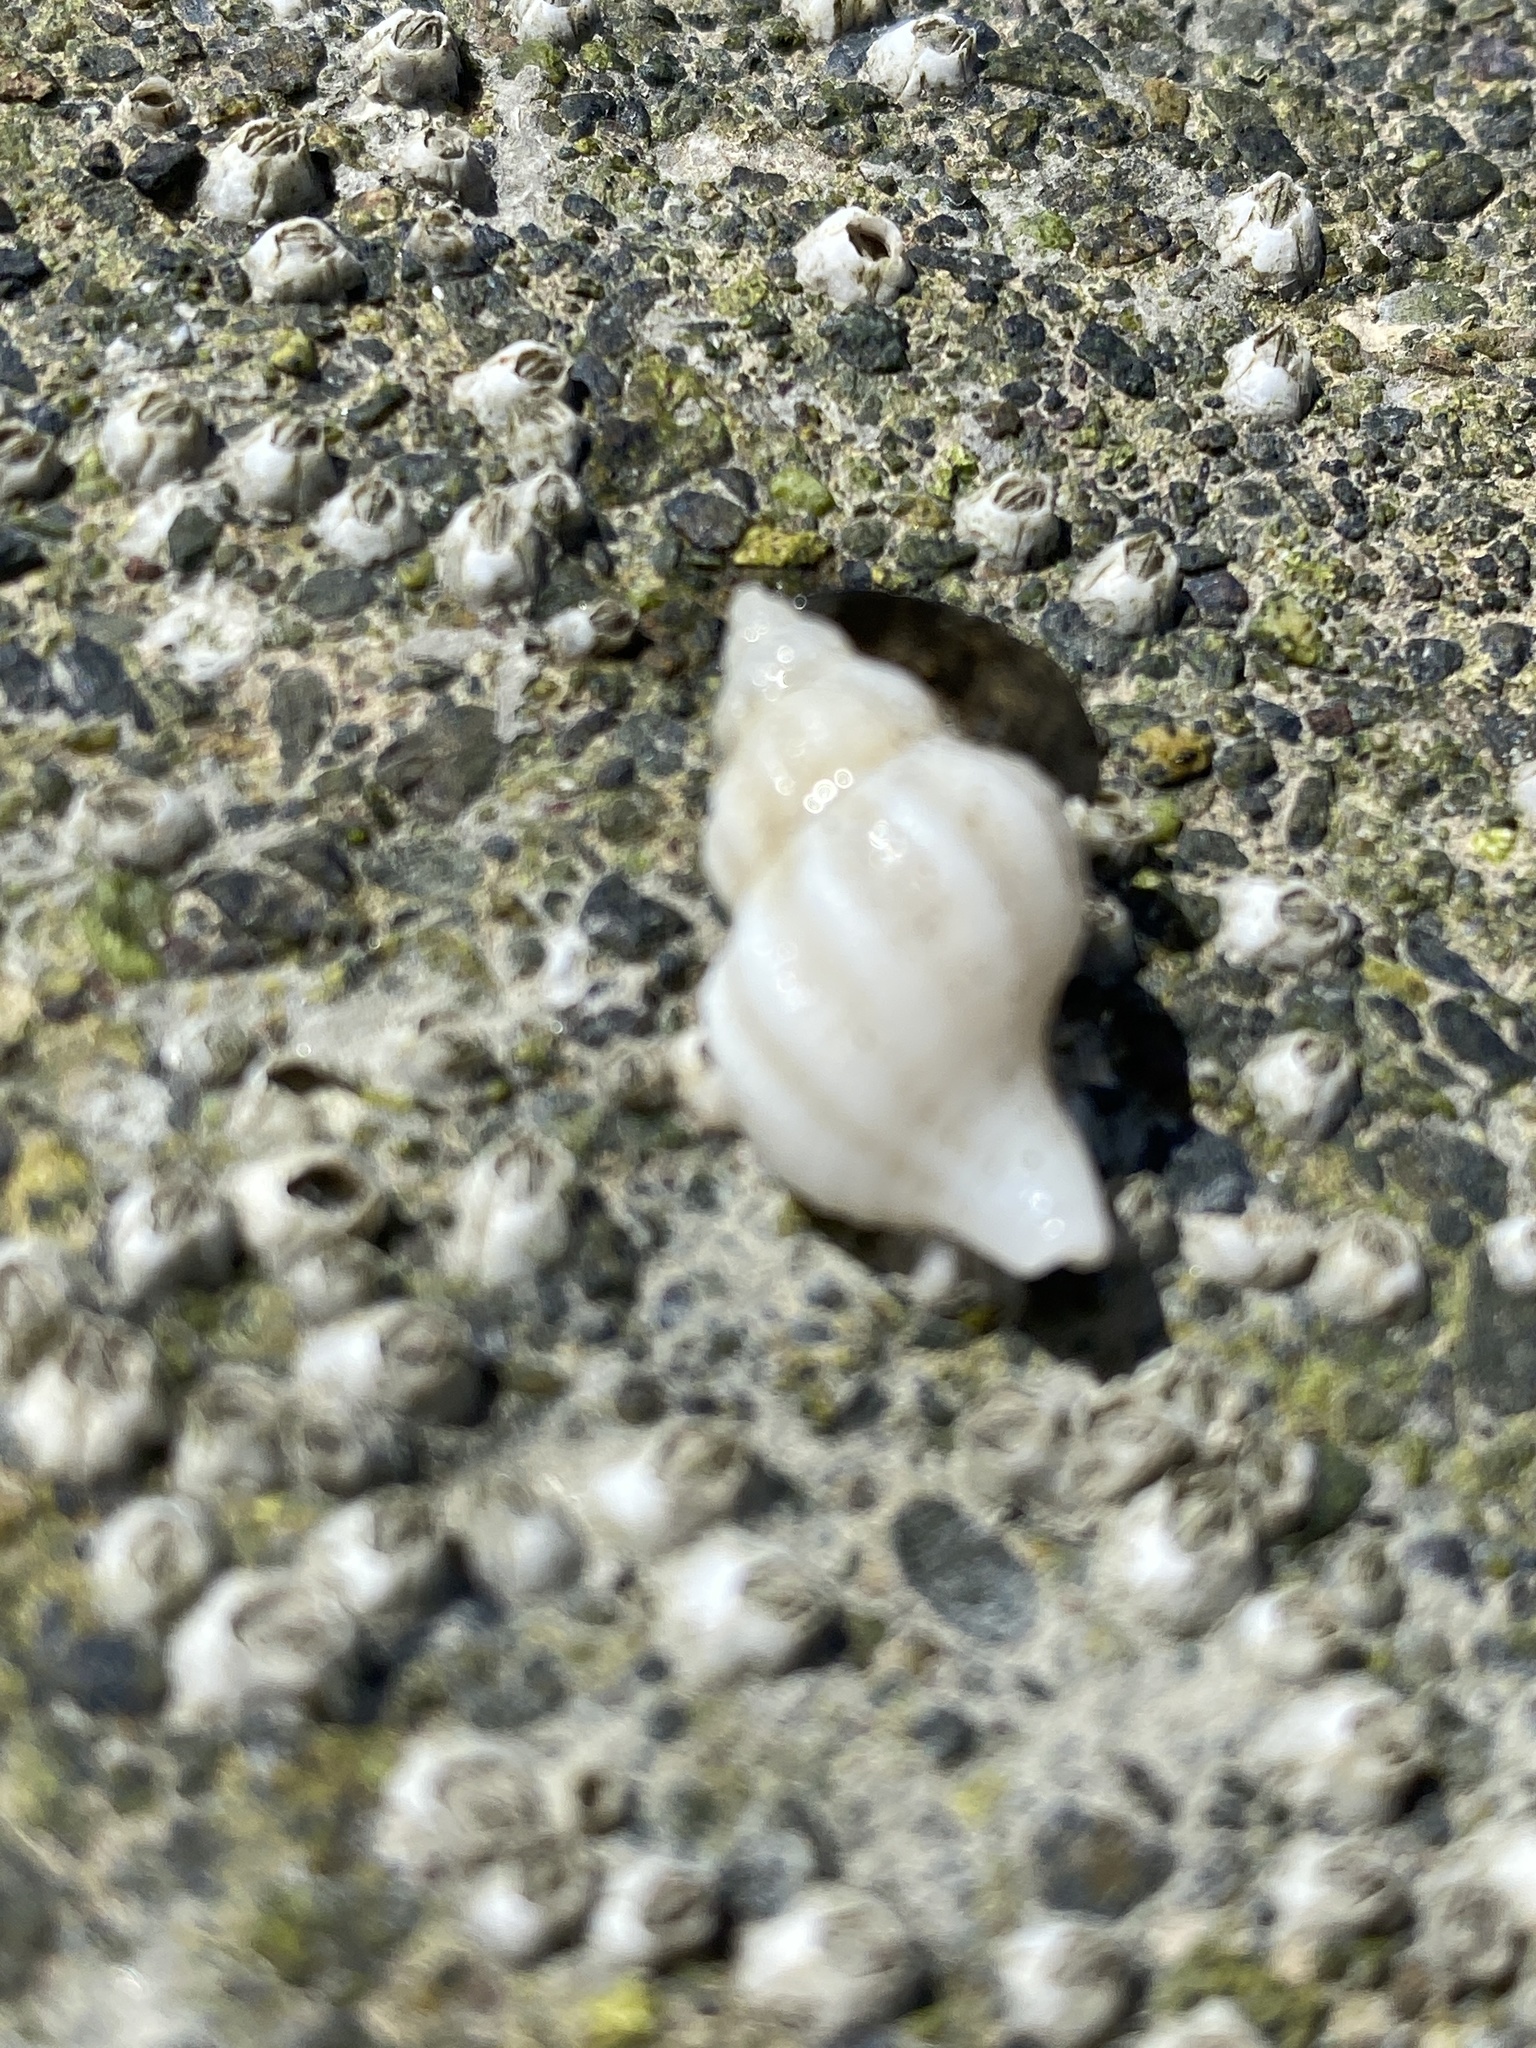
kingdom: Animalia
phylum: Mollusca
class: Gastropoda
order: Neogastropoda
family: Muricidae
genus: Urosalpinx
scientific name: Urosalpinx cinerea
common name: American sting winkle
